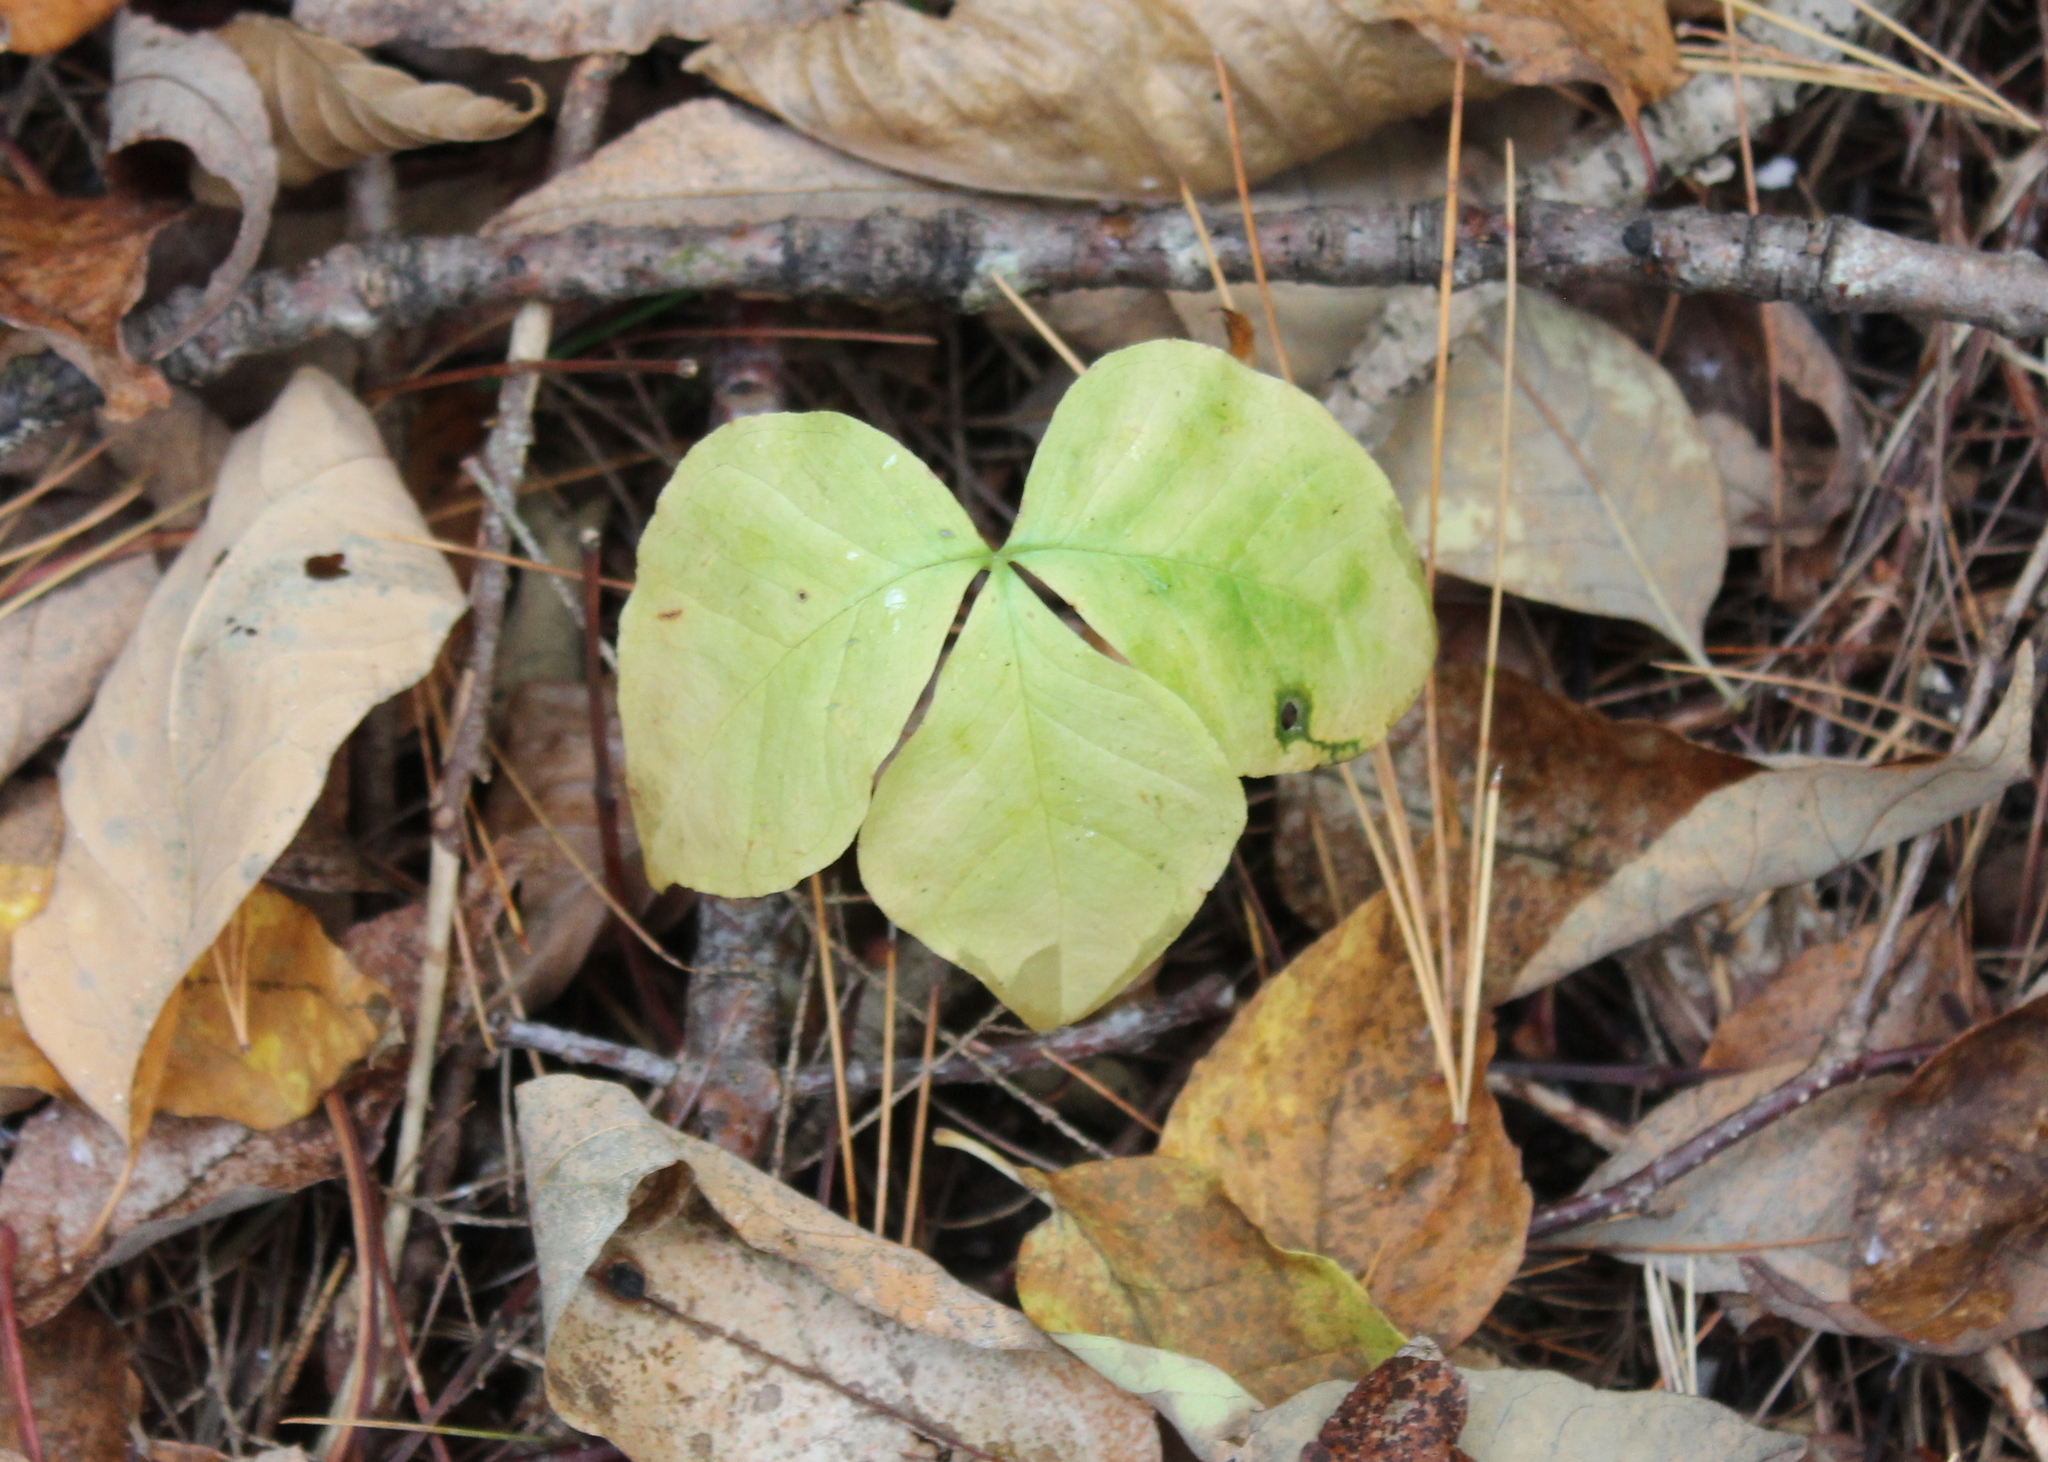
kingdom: Plantae
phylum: Tracheophyta
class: Liliopsida
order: Alismatales
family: Araceae
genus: Arisaema
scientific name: Arisaema triphyllum
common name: Jack-in-the-pulpit
